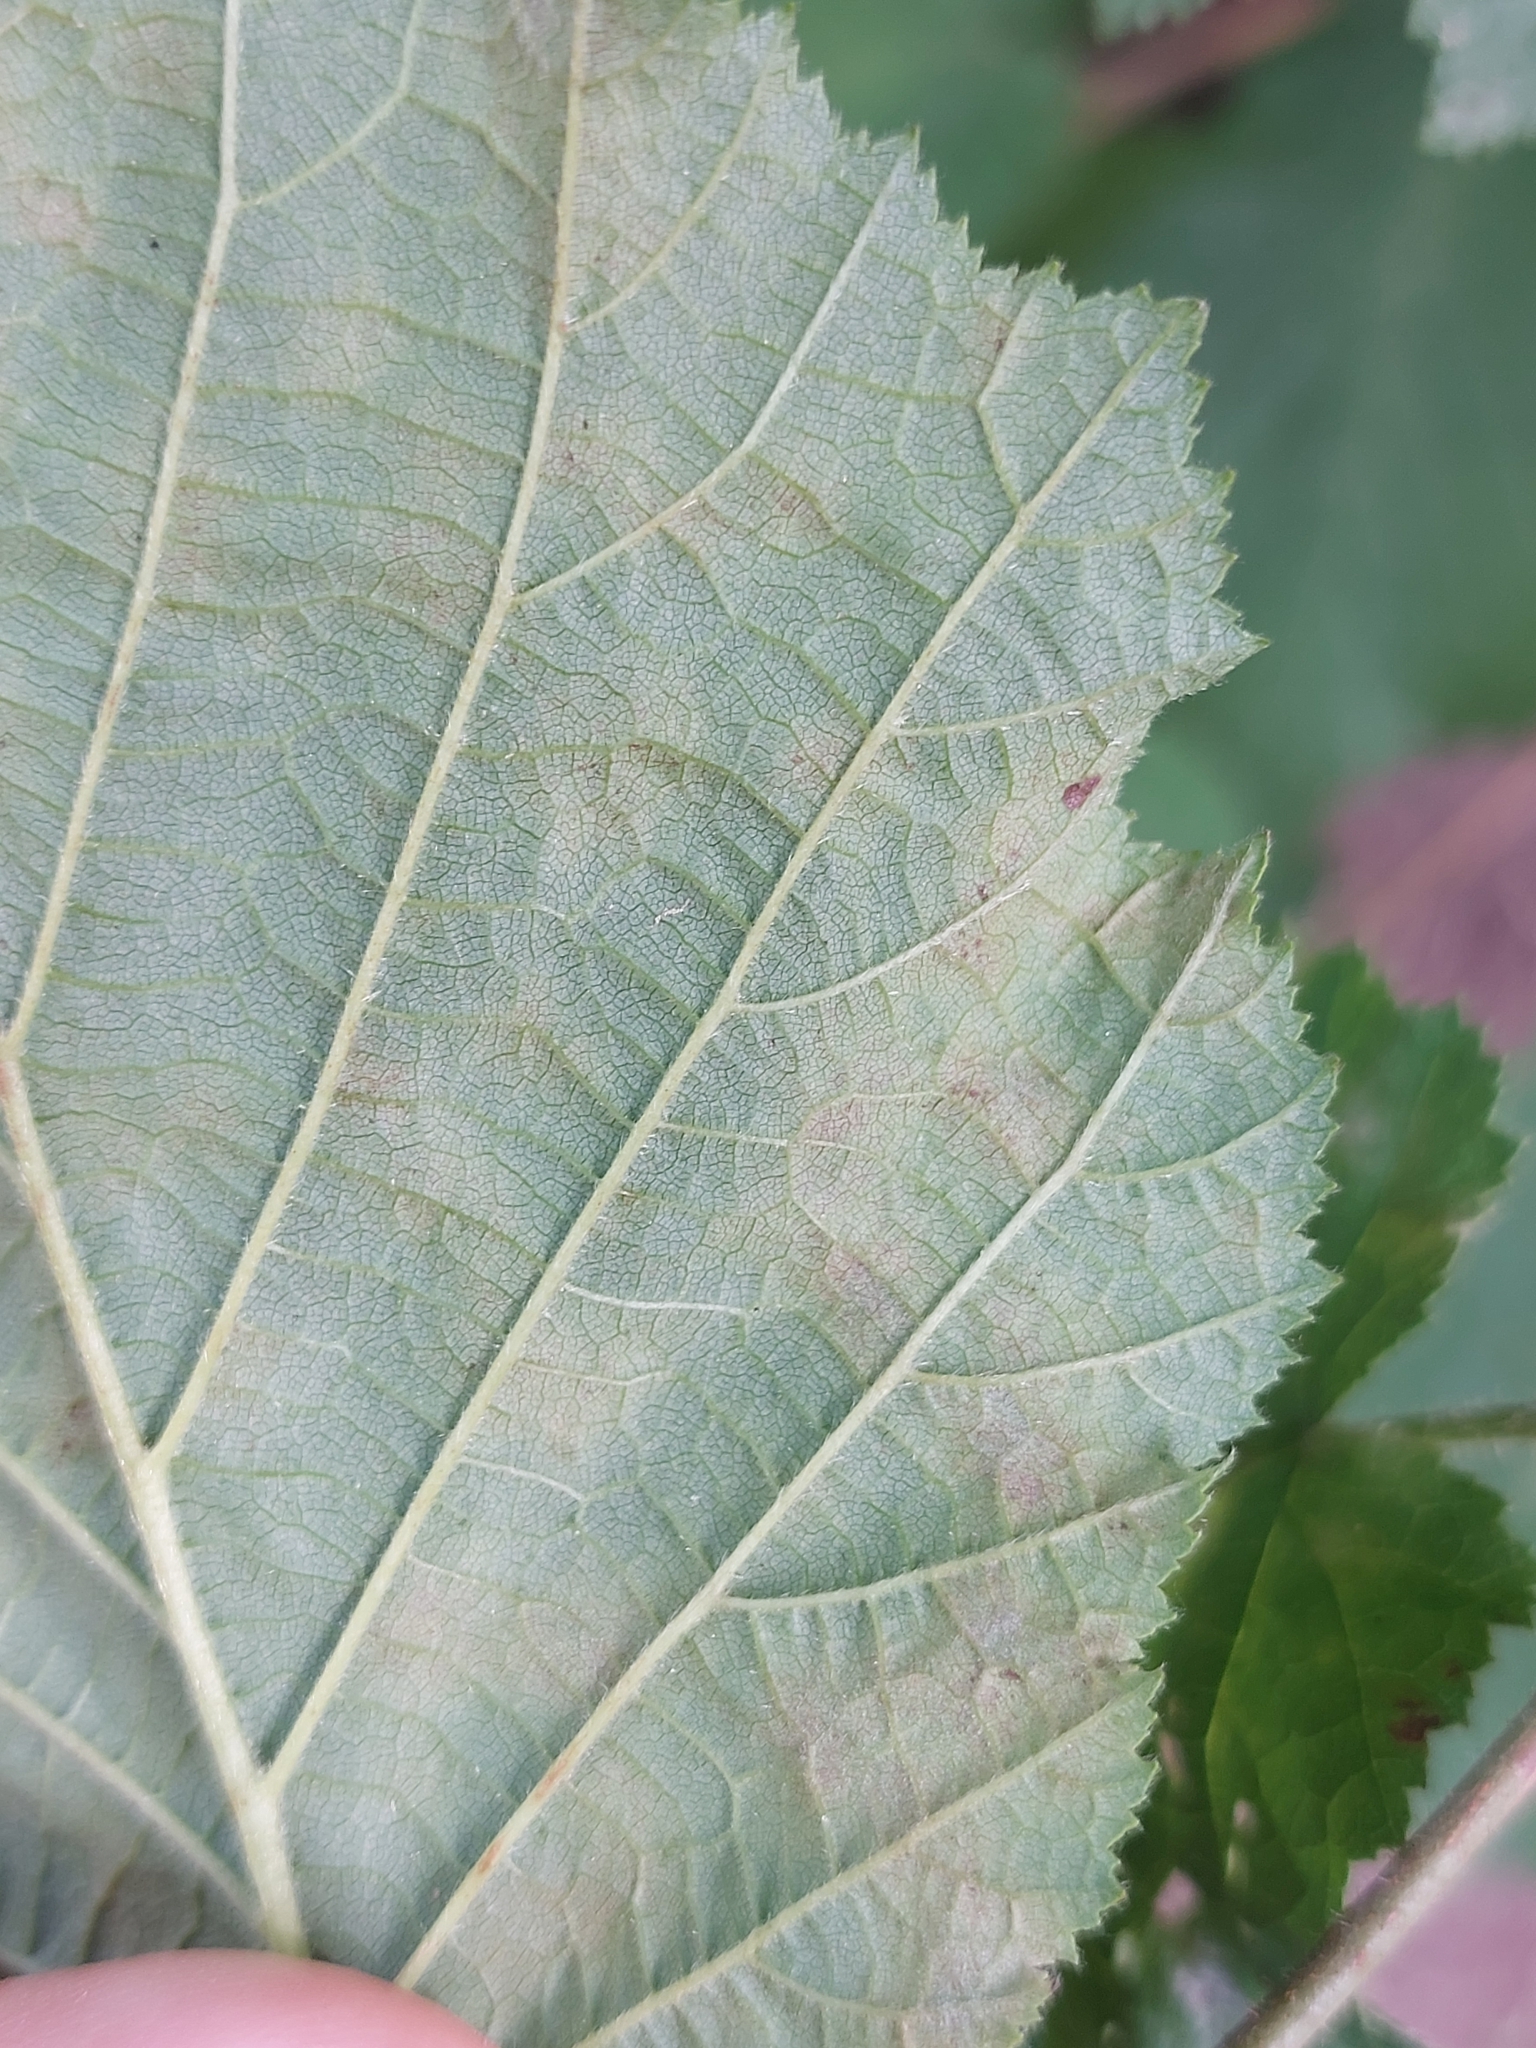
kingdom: Fungi
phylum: Ascomycota
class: Leotiomycetes
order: Helotiales
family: Erysiphaceae
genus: Erysiphe
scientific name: Erysiphe corylacearum
